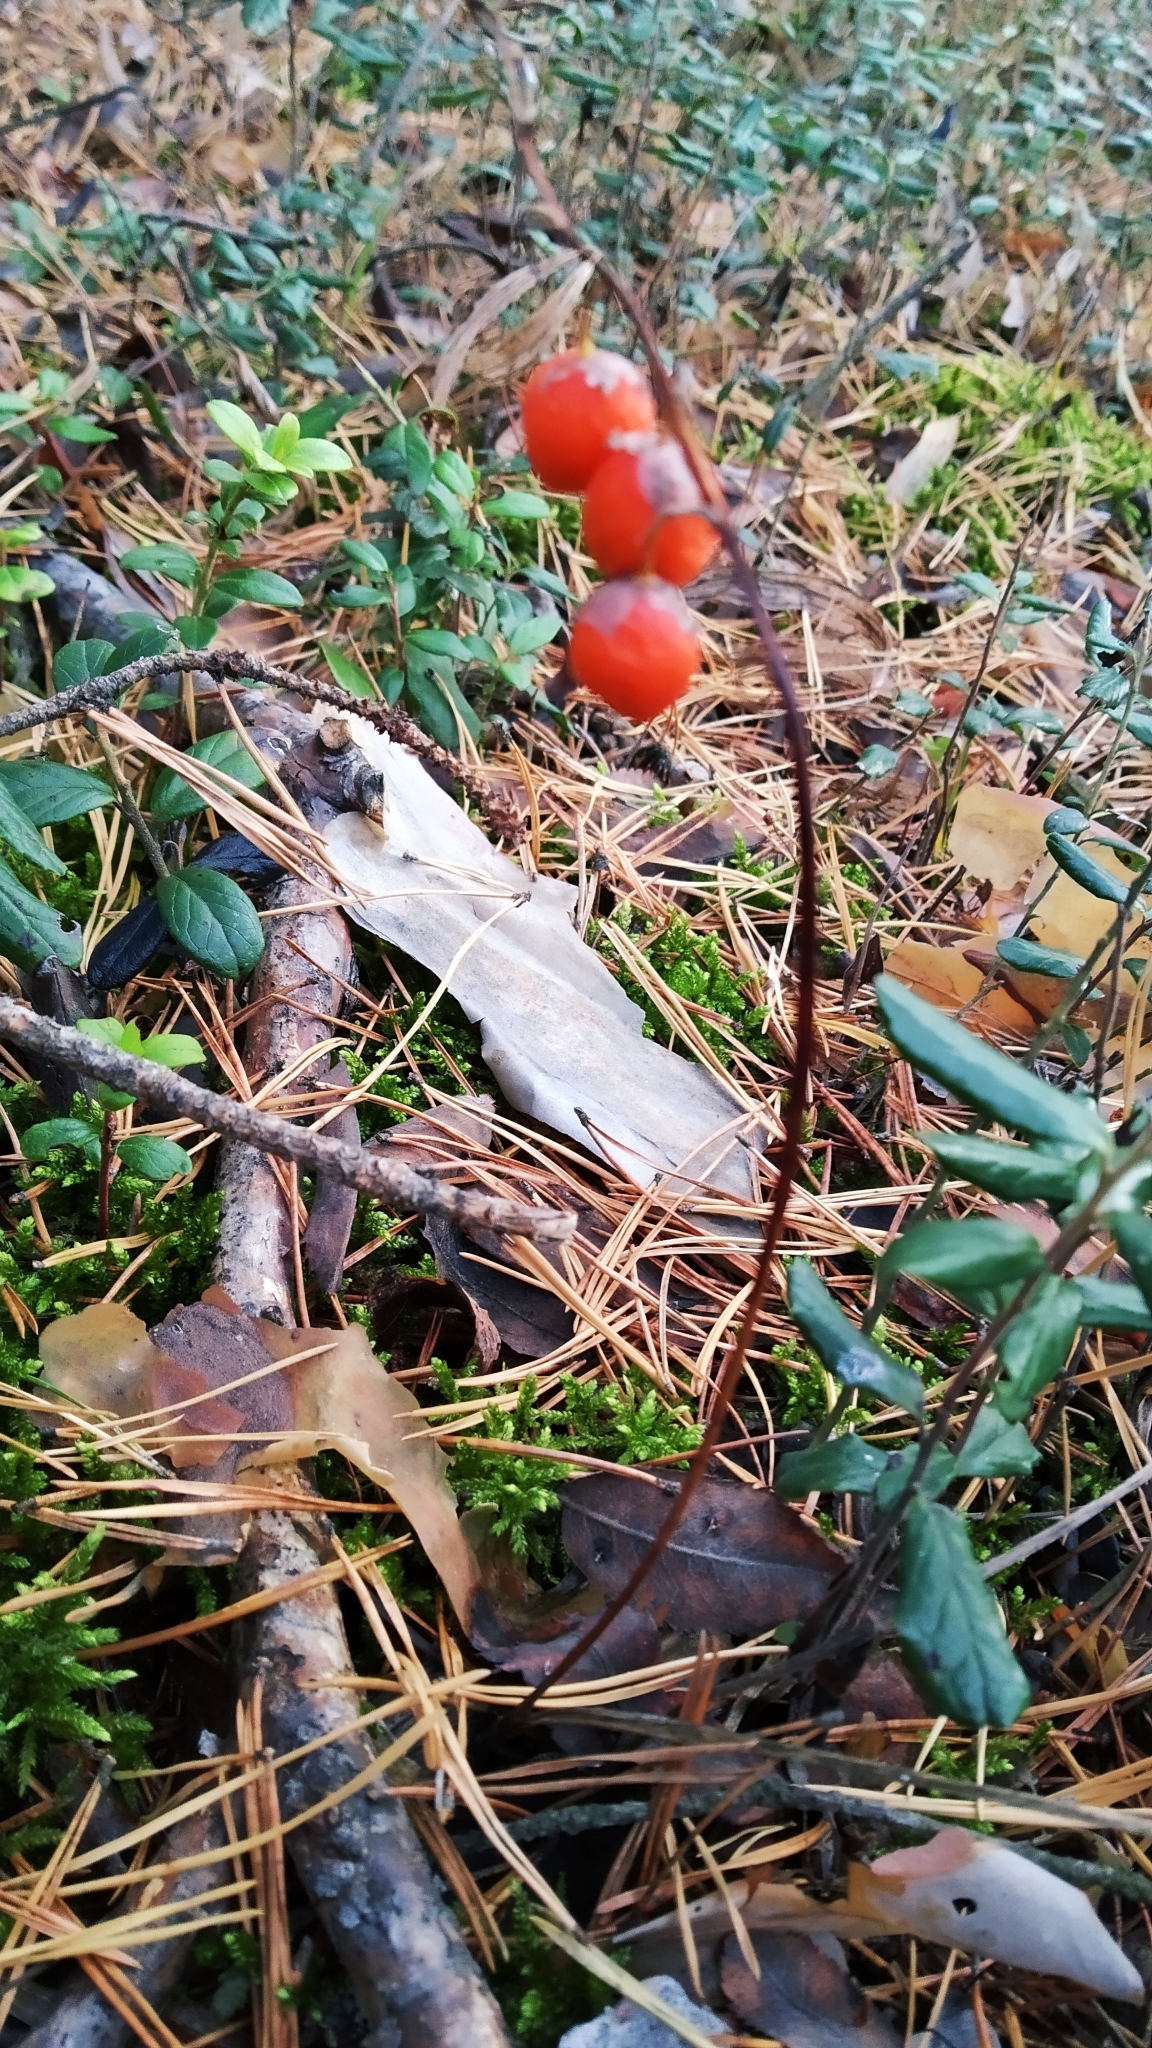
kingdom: Plantae
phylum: Tracheophyta
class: Liliopsida
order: Asparagales
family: Asparagaceae
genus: Convallaria
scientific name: Convallaria majalis
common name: Lily-of-the-valley
